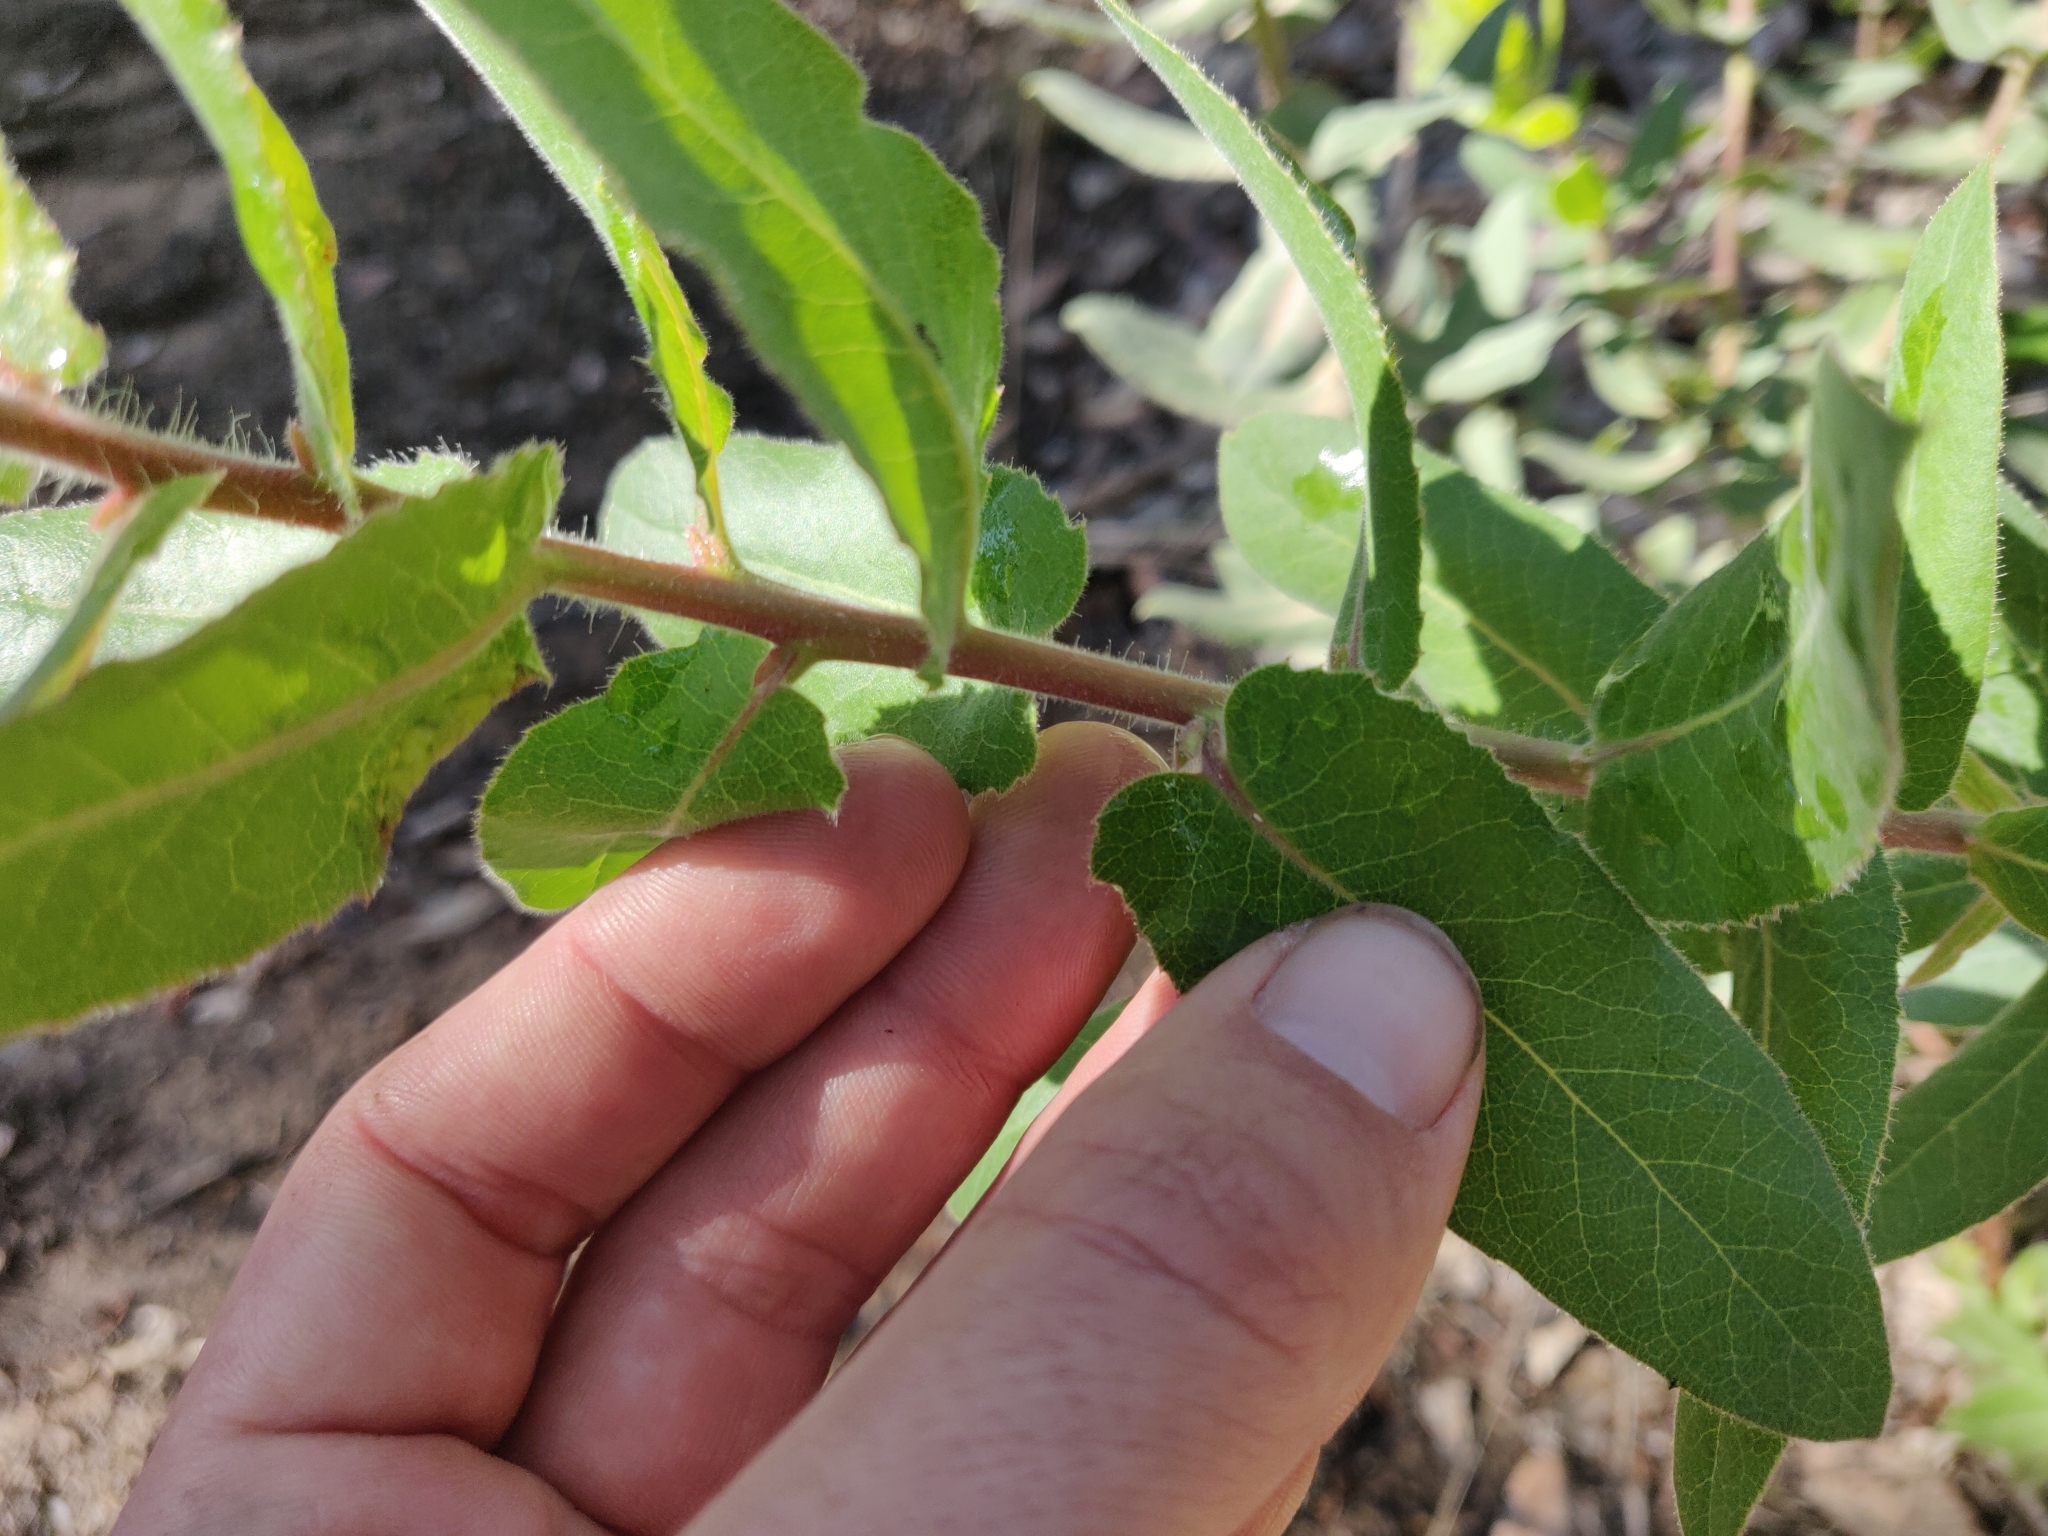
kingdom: Plantae
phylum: Tracheophyta
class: Magnoliopsida
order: Ericales
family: Ericaceae
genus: Arctostaphylos
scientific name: Arctostaphylos andersonii
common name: Santa cruz manzanita
